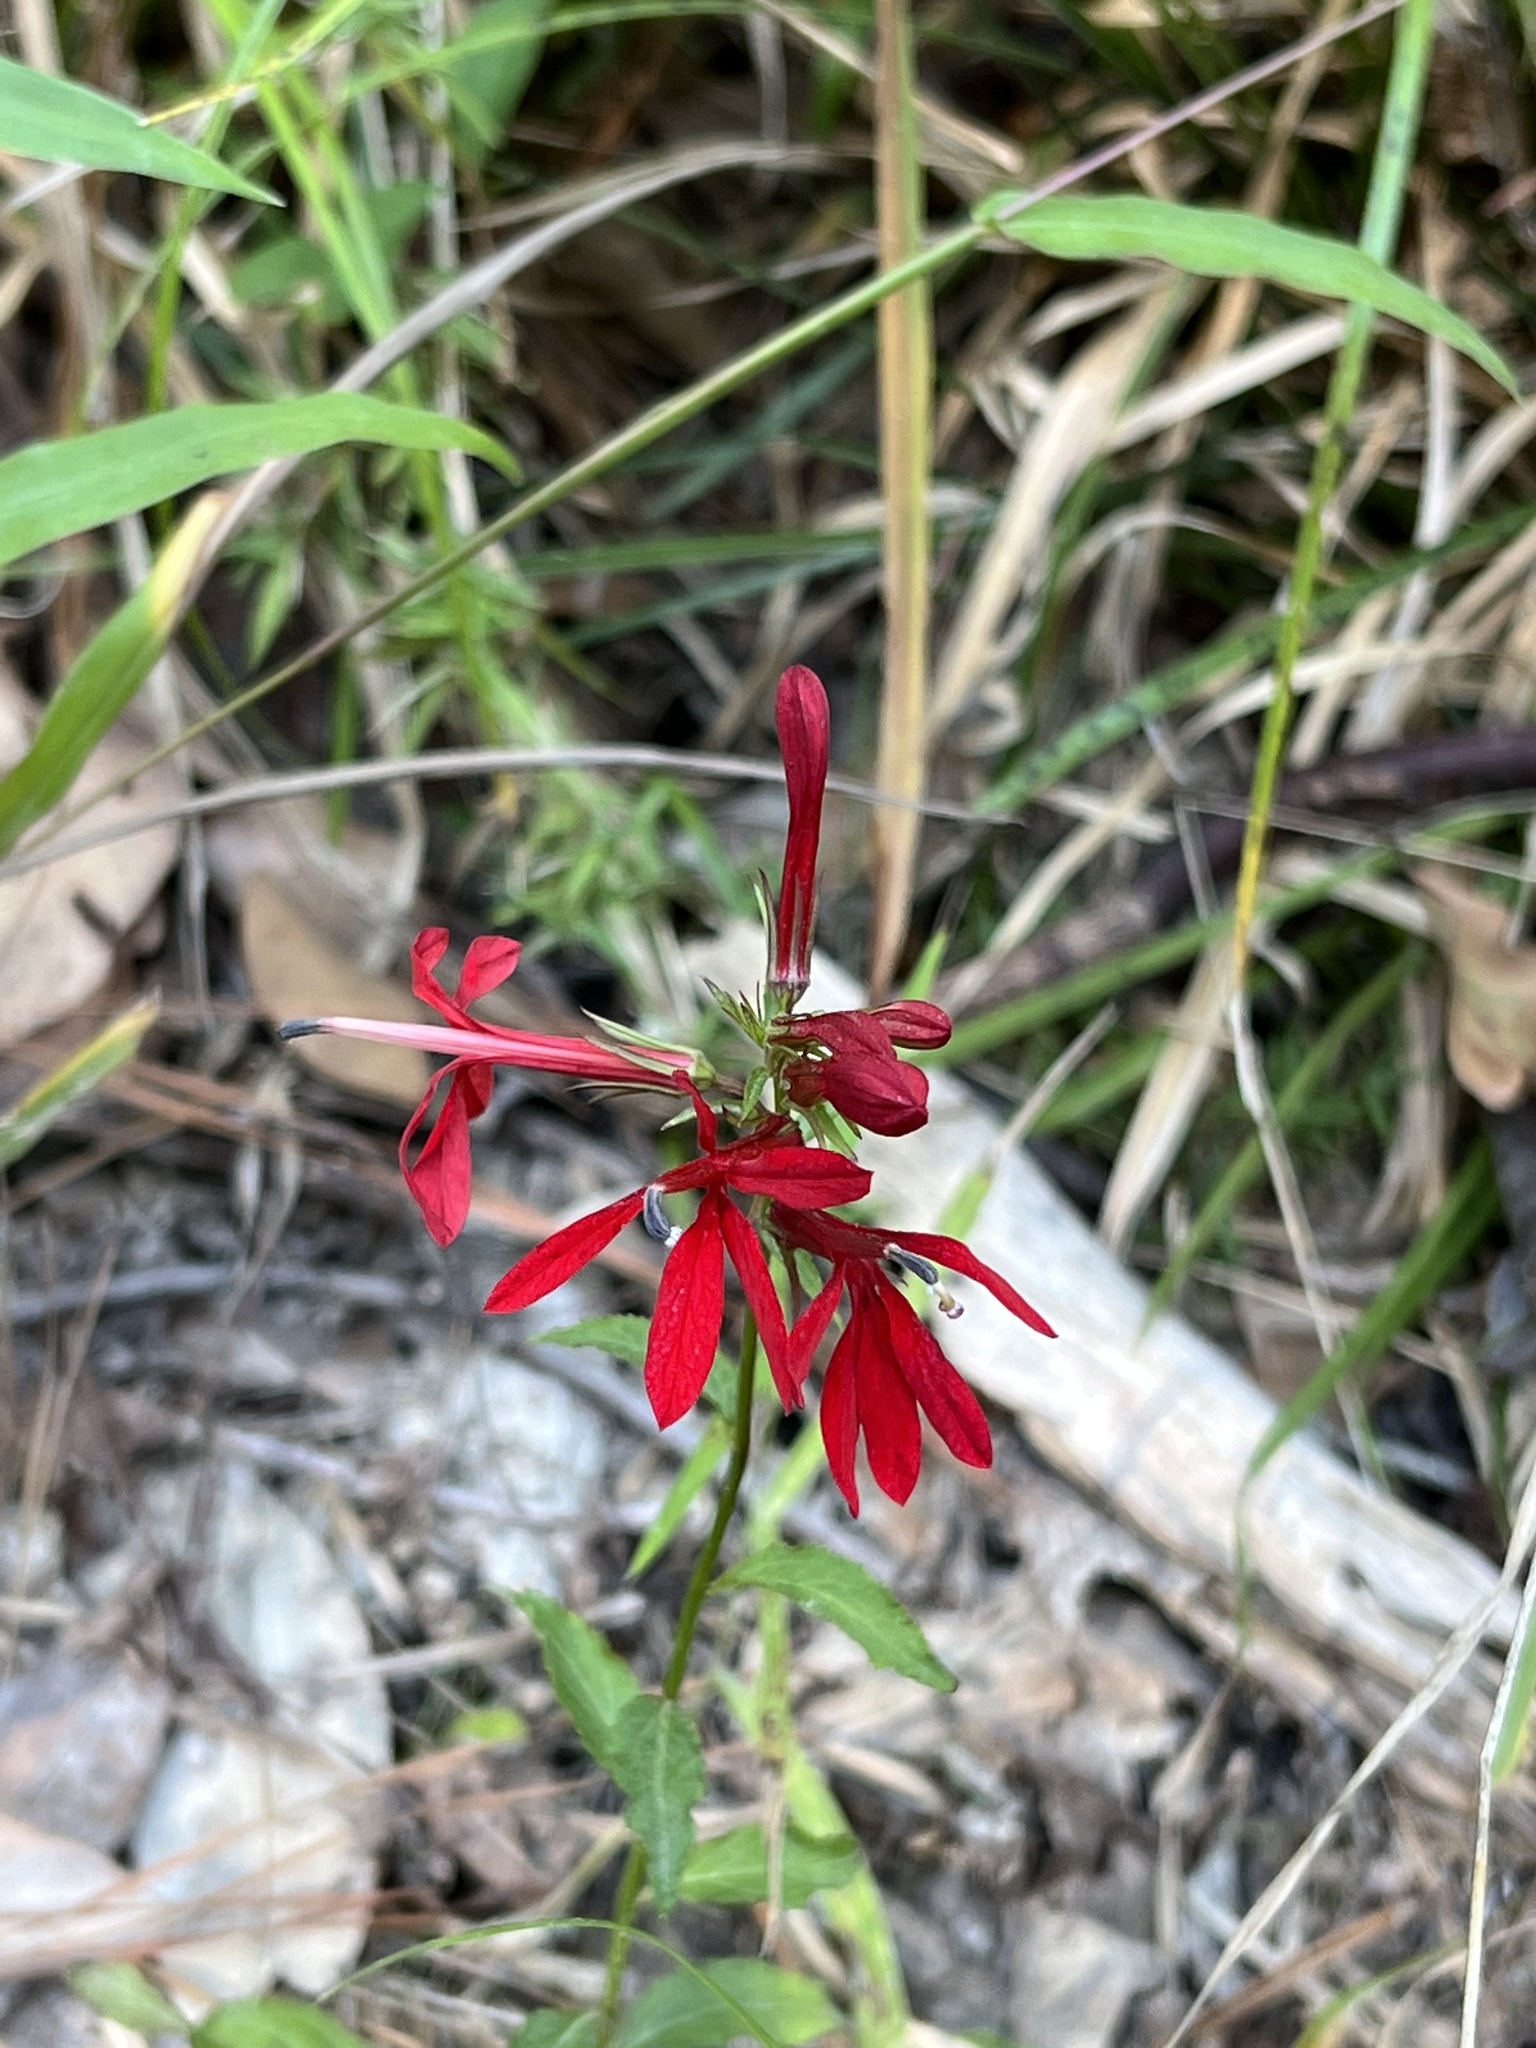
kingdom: Plantae
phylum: Tracheophyta
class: Magnoliopsida
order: Asterales
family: Campanulaceae
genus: Lobelia
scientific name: Lobelia cardinalis
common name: Cardinal flower
